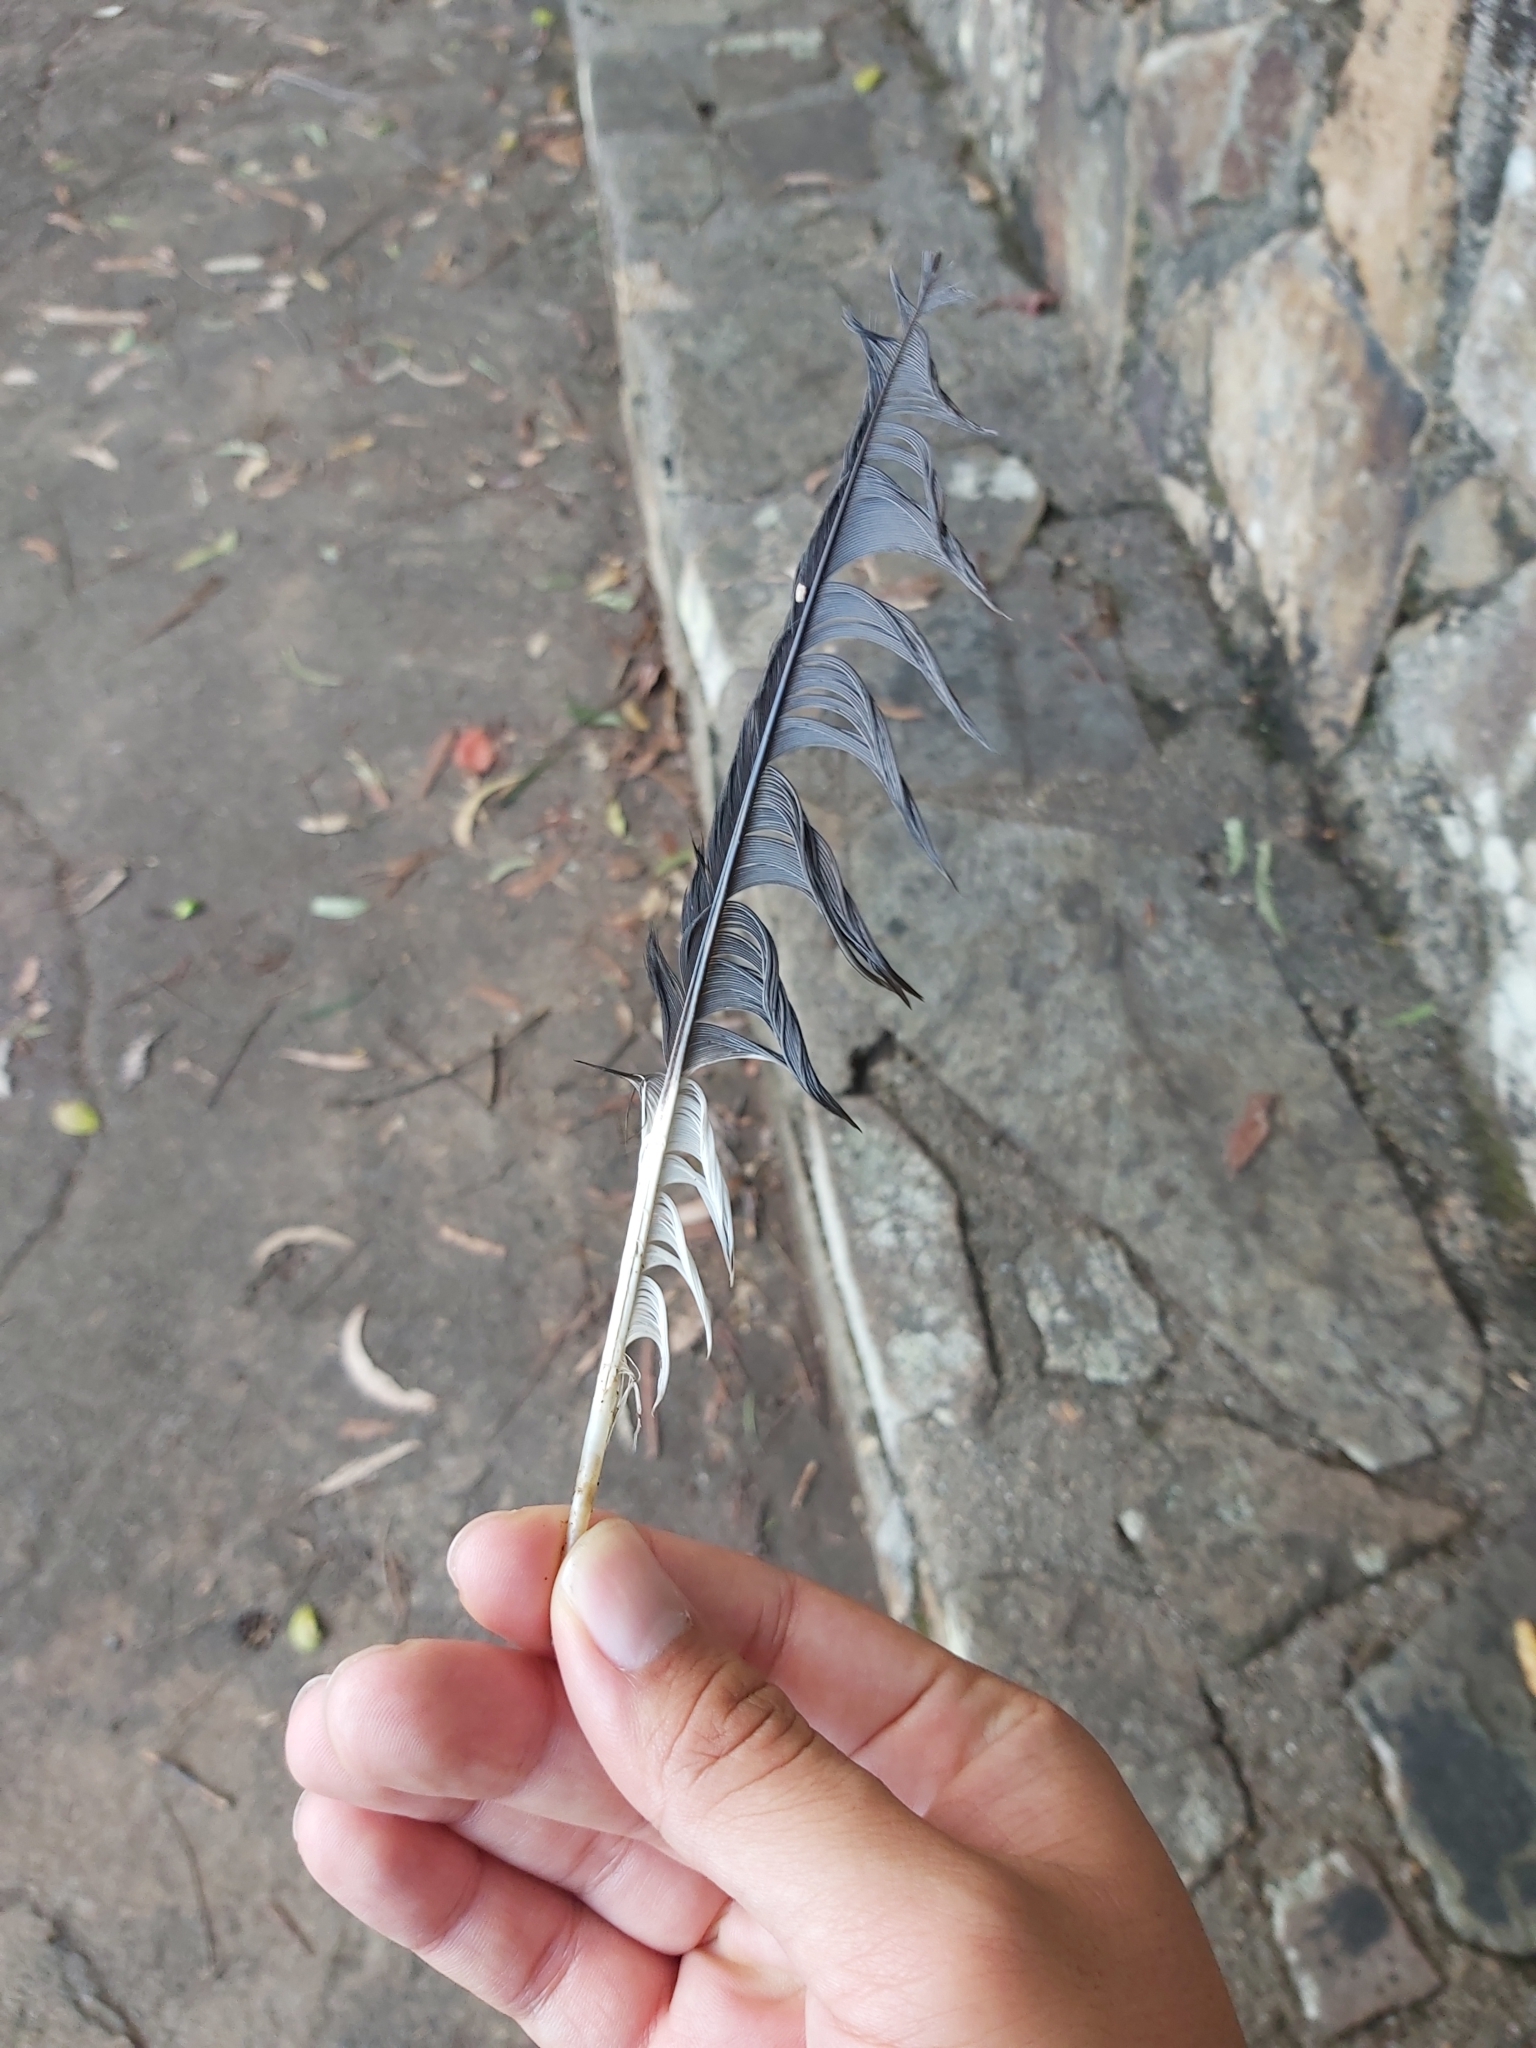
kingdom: Animalia
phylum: Chordata
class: Aves
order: Passeriformes
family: Cracticidae
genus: Strepera
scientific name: Strepera graculina
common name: Pied currawong
